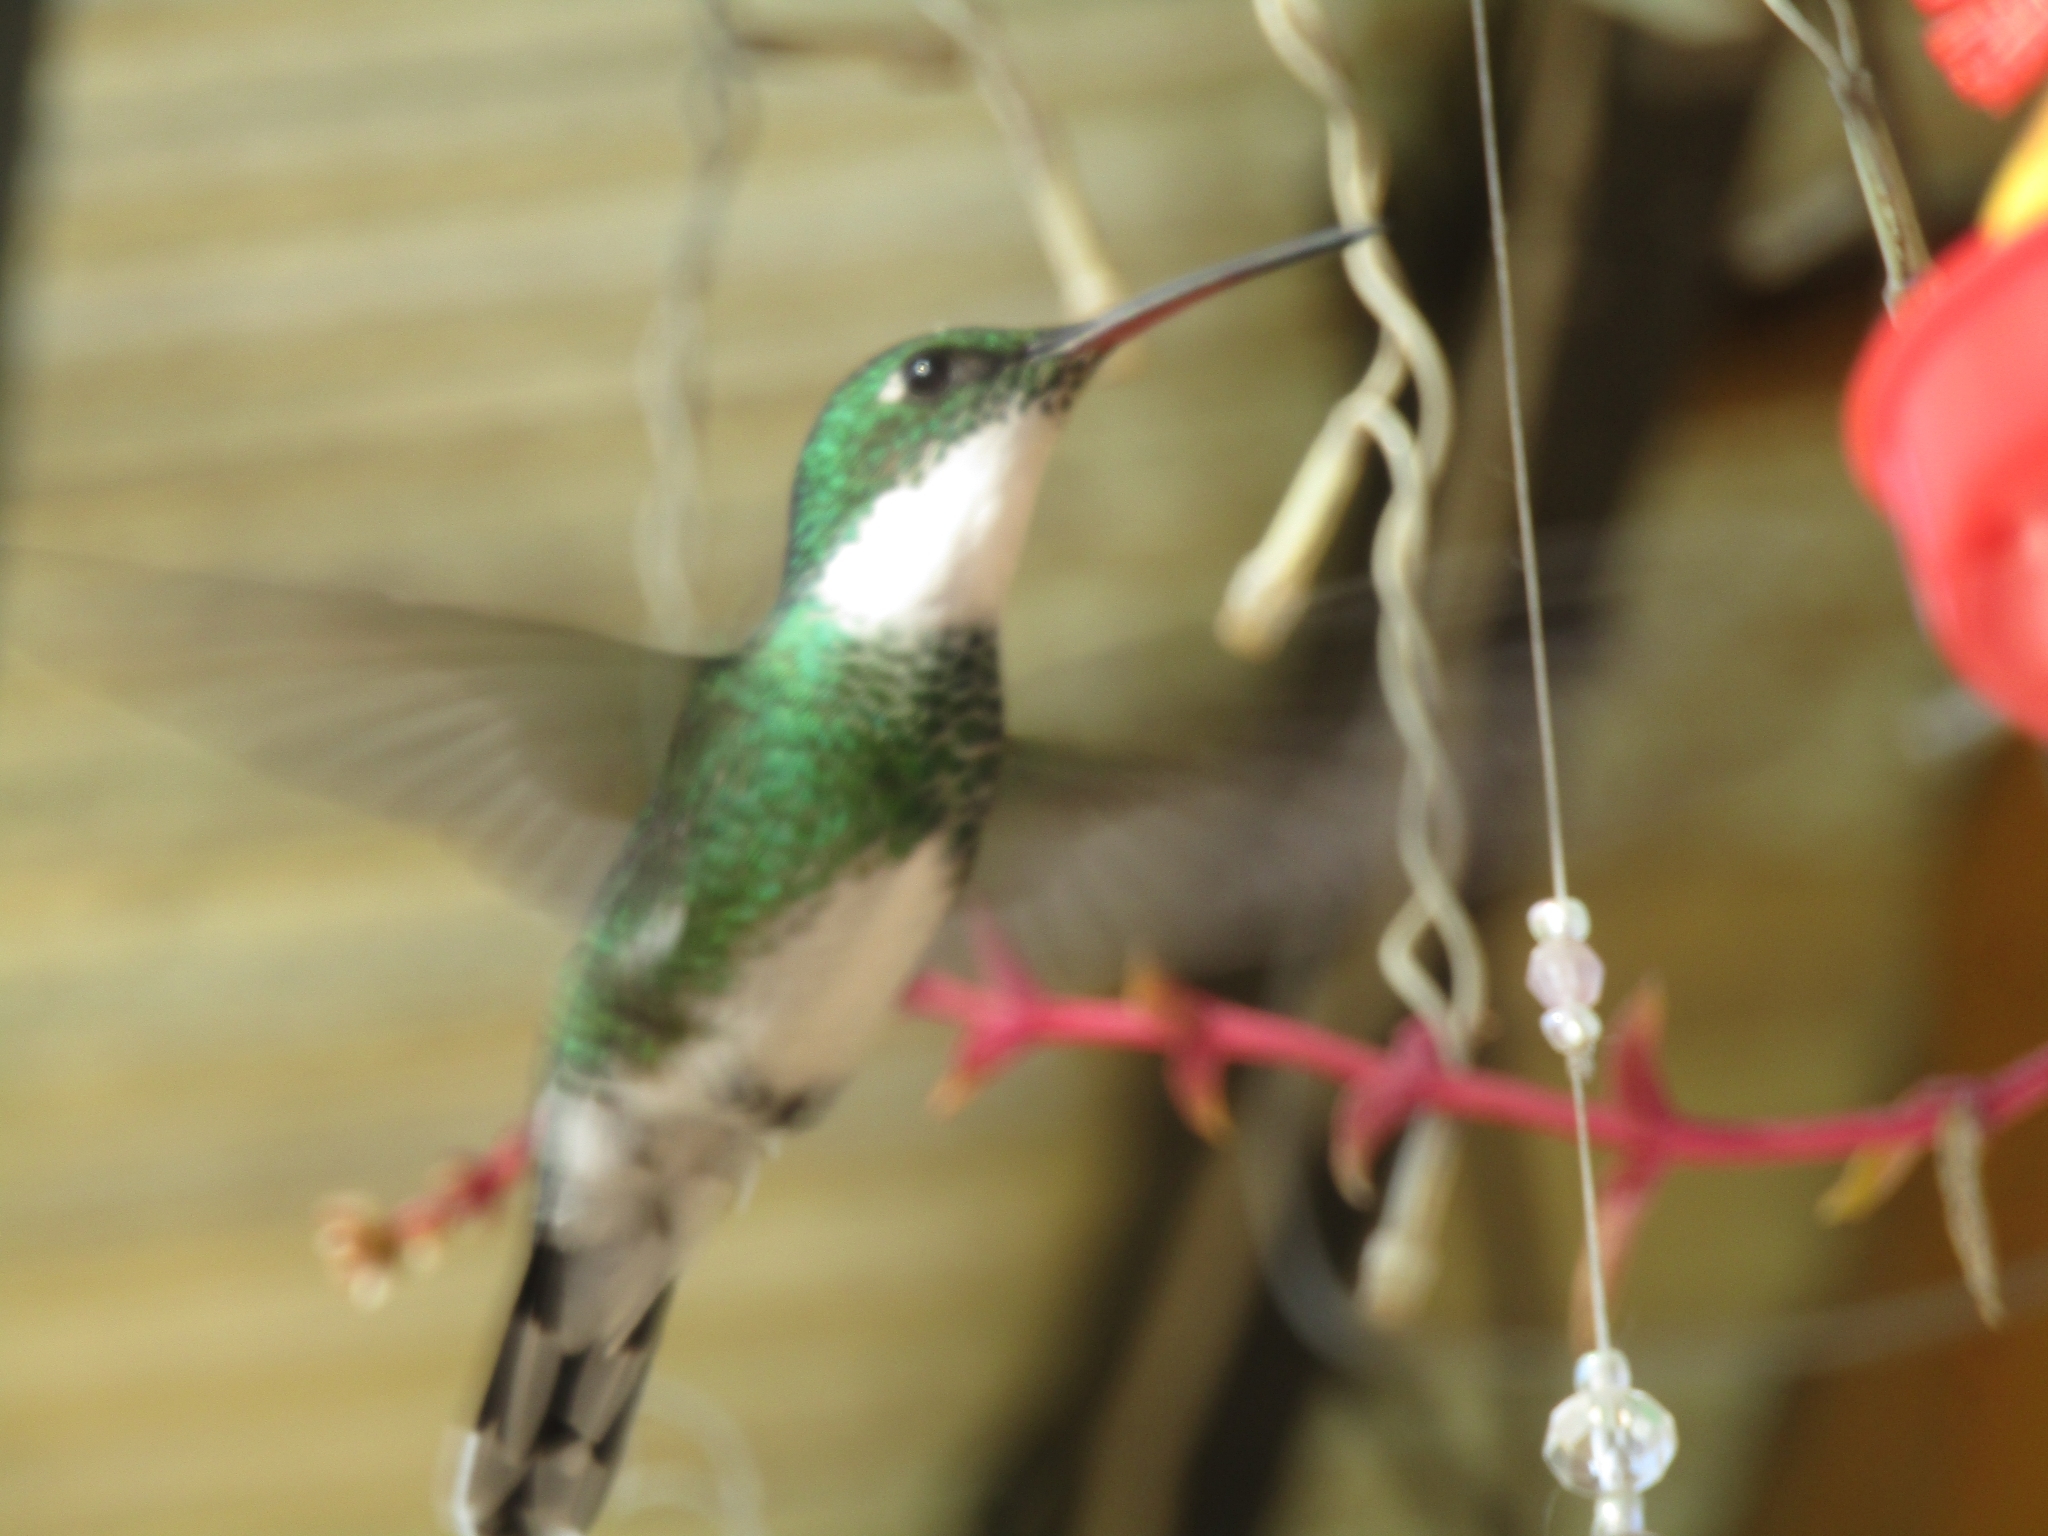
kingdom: Animalia
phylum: Chordata
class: Aves
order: Apodiformes
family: Trochilidae
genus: Leucochloris
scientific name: Leucochloris albicollis
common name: White-throated hummingbird
